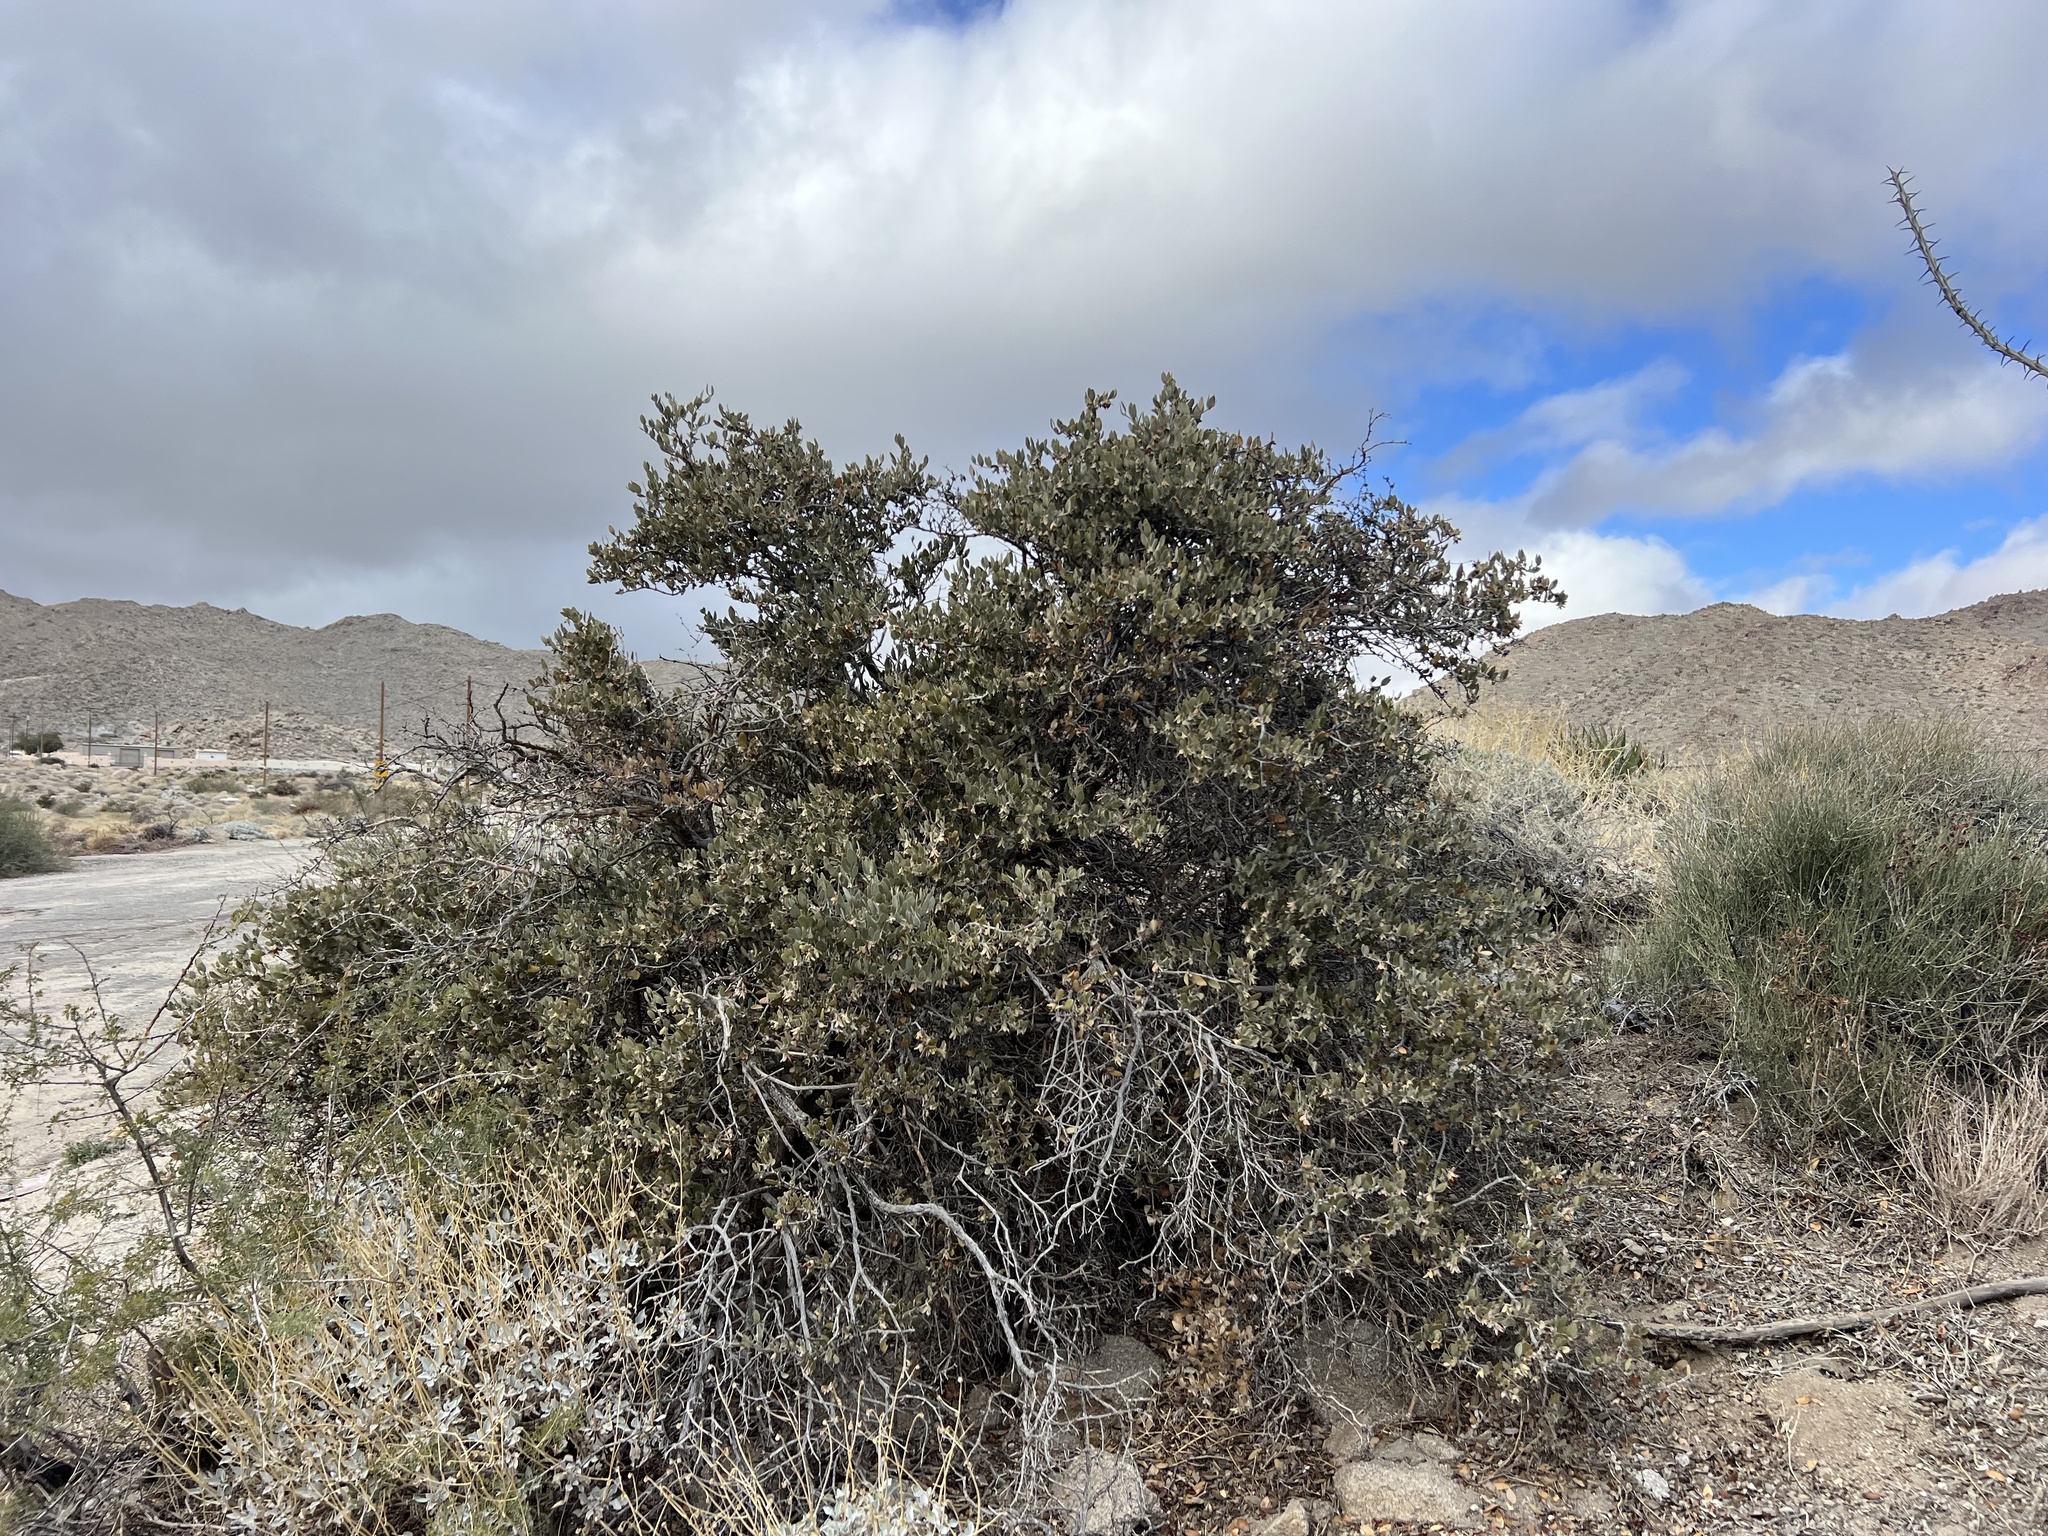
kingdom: Plantae
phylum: Tracheophyta
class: Magnoliopsida
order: Caryophyllales
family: Simmondsiaceae
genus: Simmondsia
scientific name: Simmondsia chinensis
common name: Jojoba
